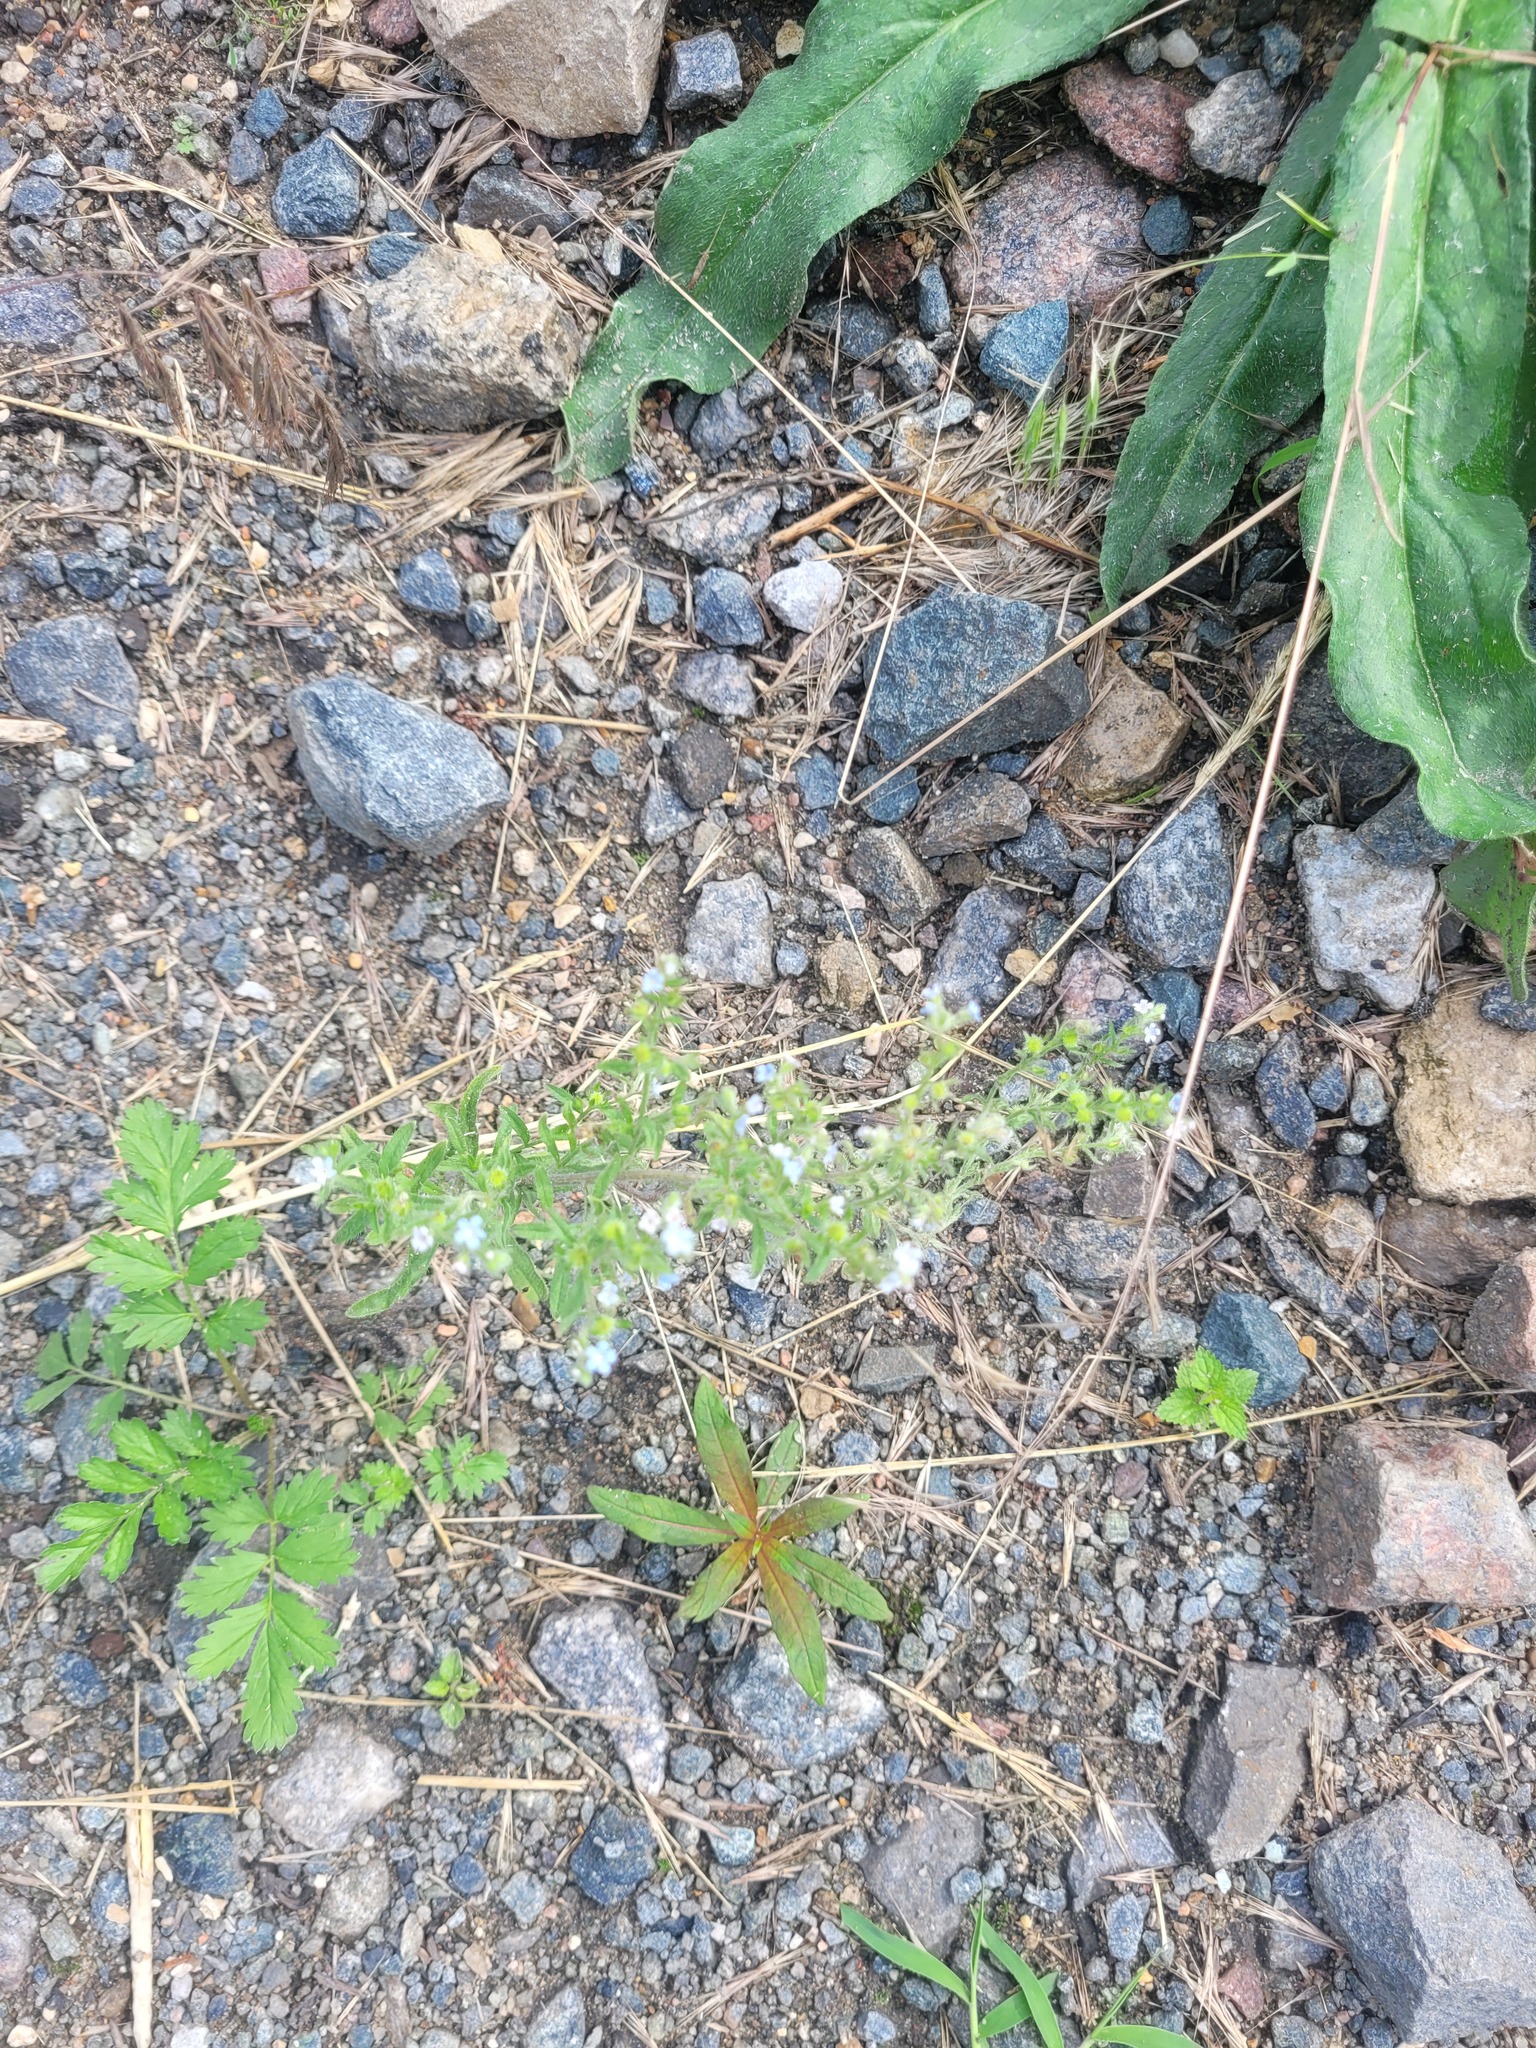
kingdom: Plantae
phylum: Tracheophyta
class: Magnoliopsida
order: Boraginales
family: Boraginaceae
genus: Lappula
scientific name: Lappula squarrosa
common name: European stickseed
